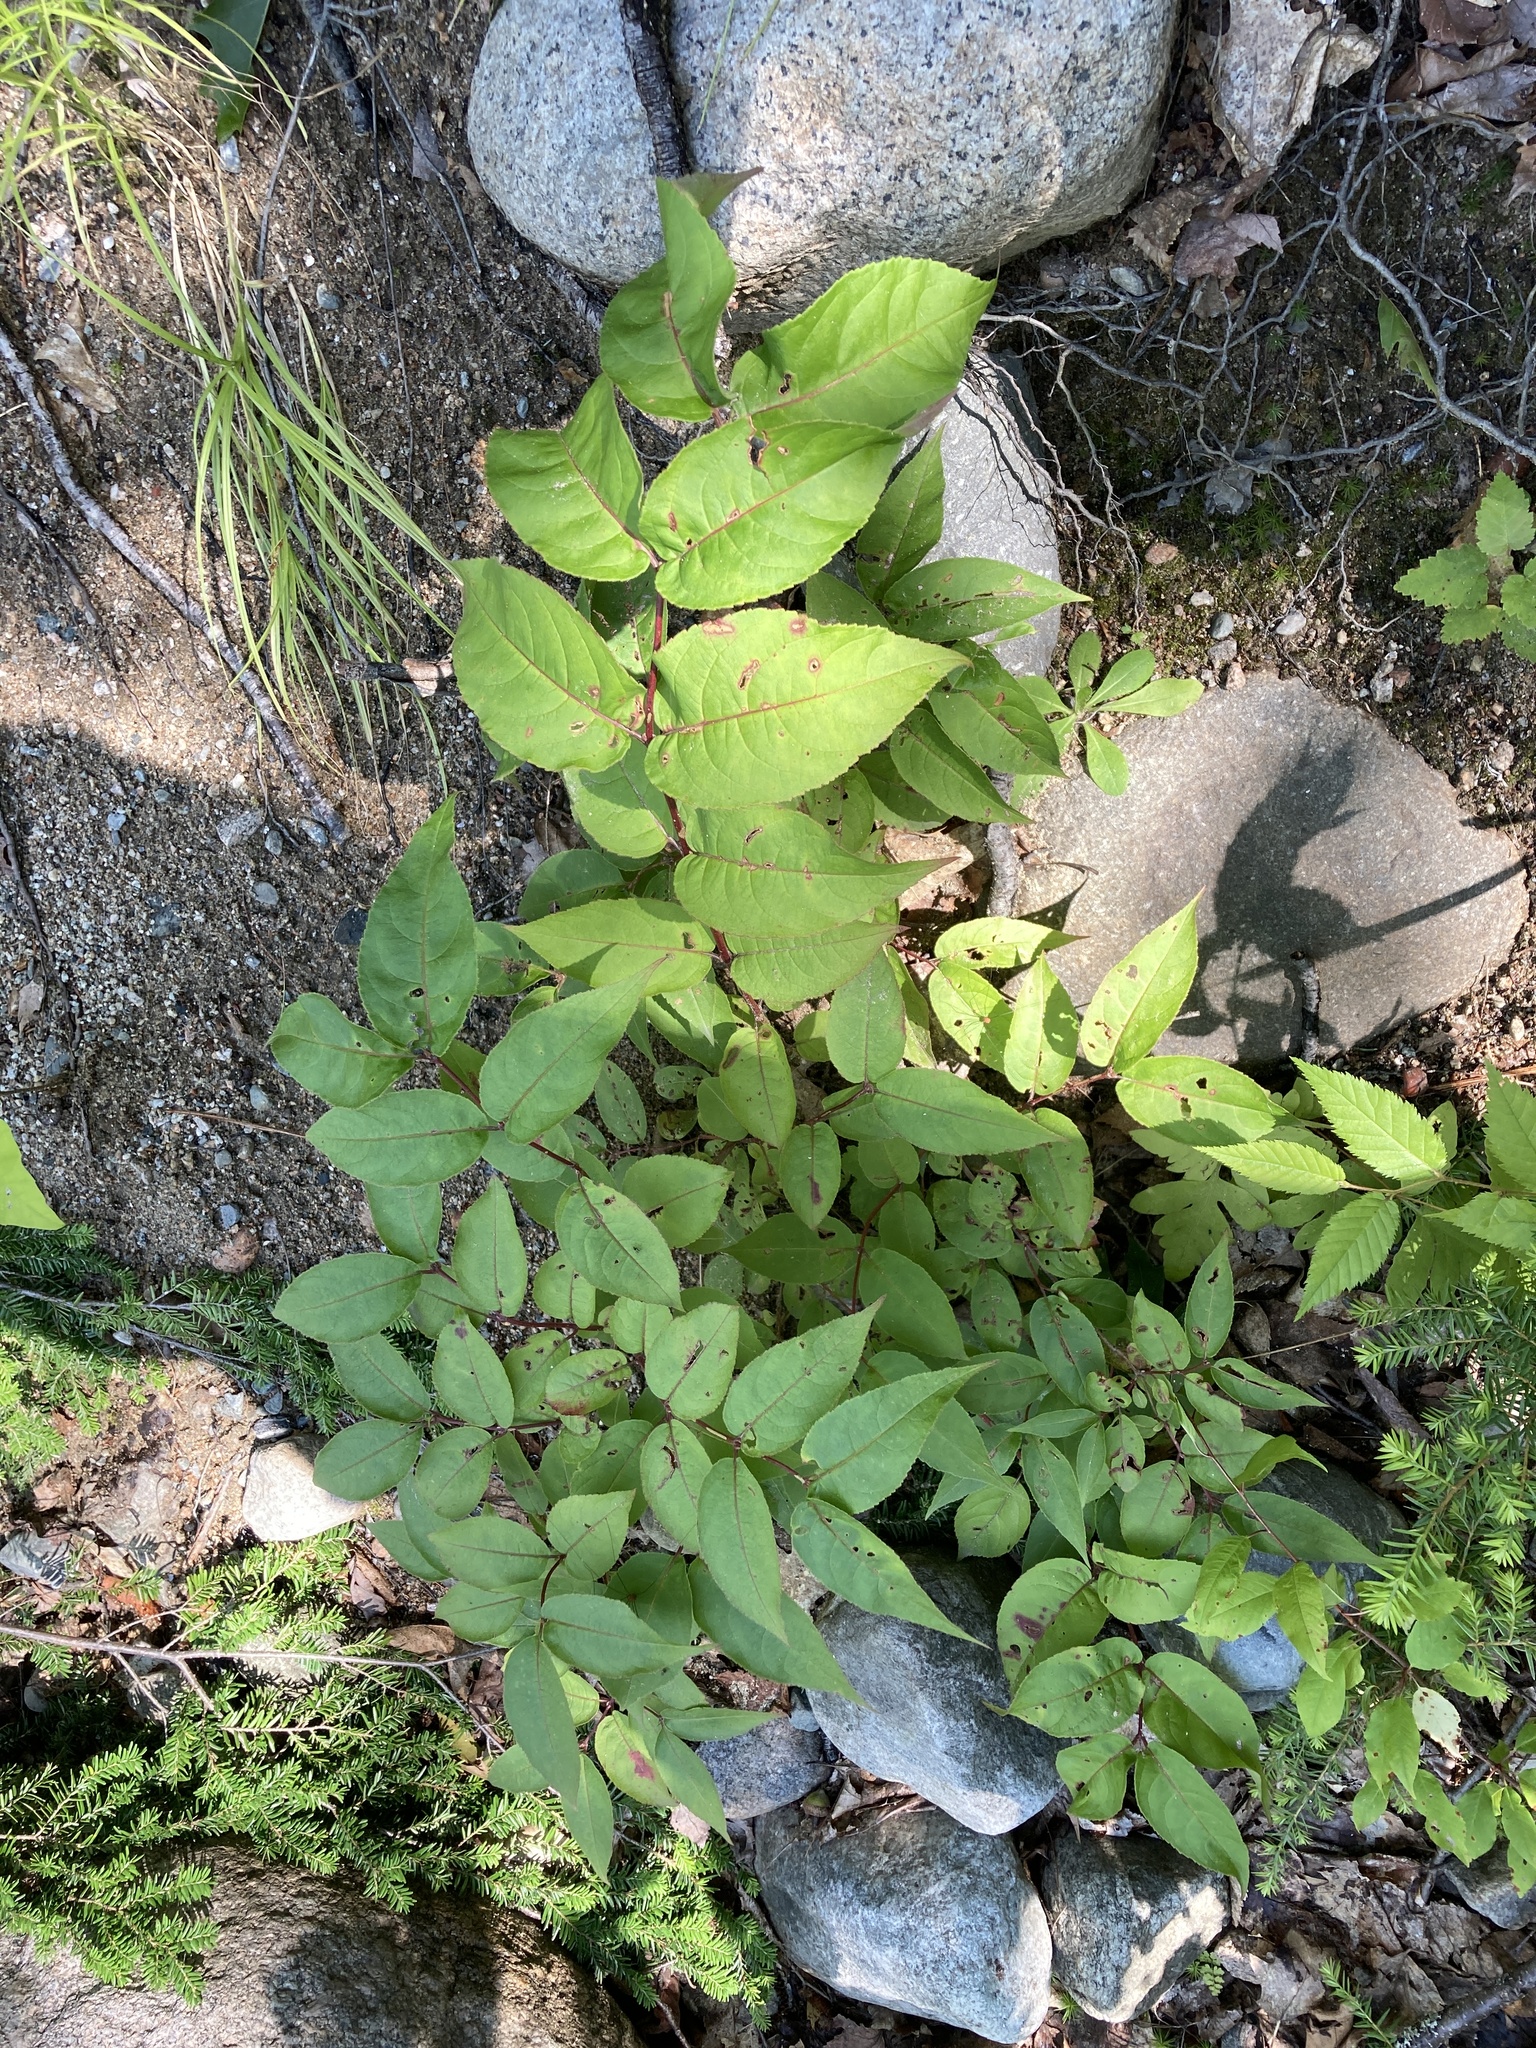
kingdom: Plantae
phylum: Tracheophyta
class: Magnoliopsida
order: Dipsacales
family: Caprifoliaceae
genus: Diervilla
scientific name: Diervilla lonicera
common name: Bush-honeysuckle
